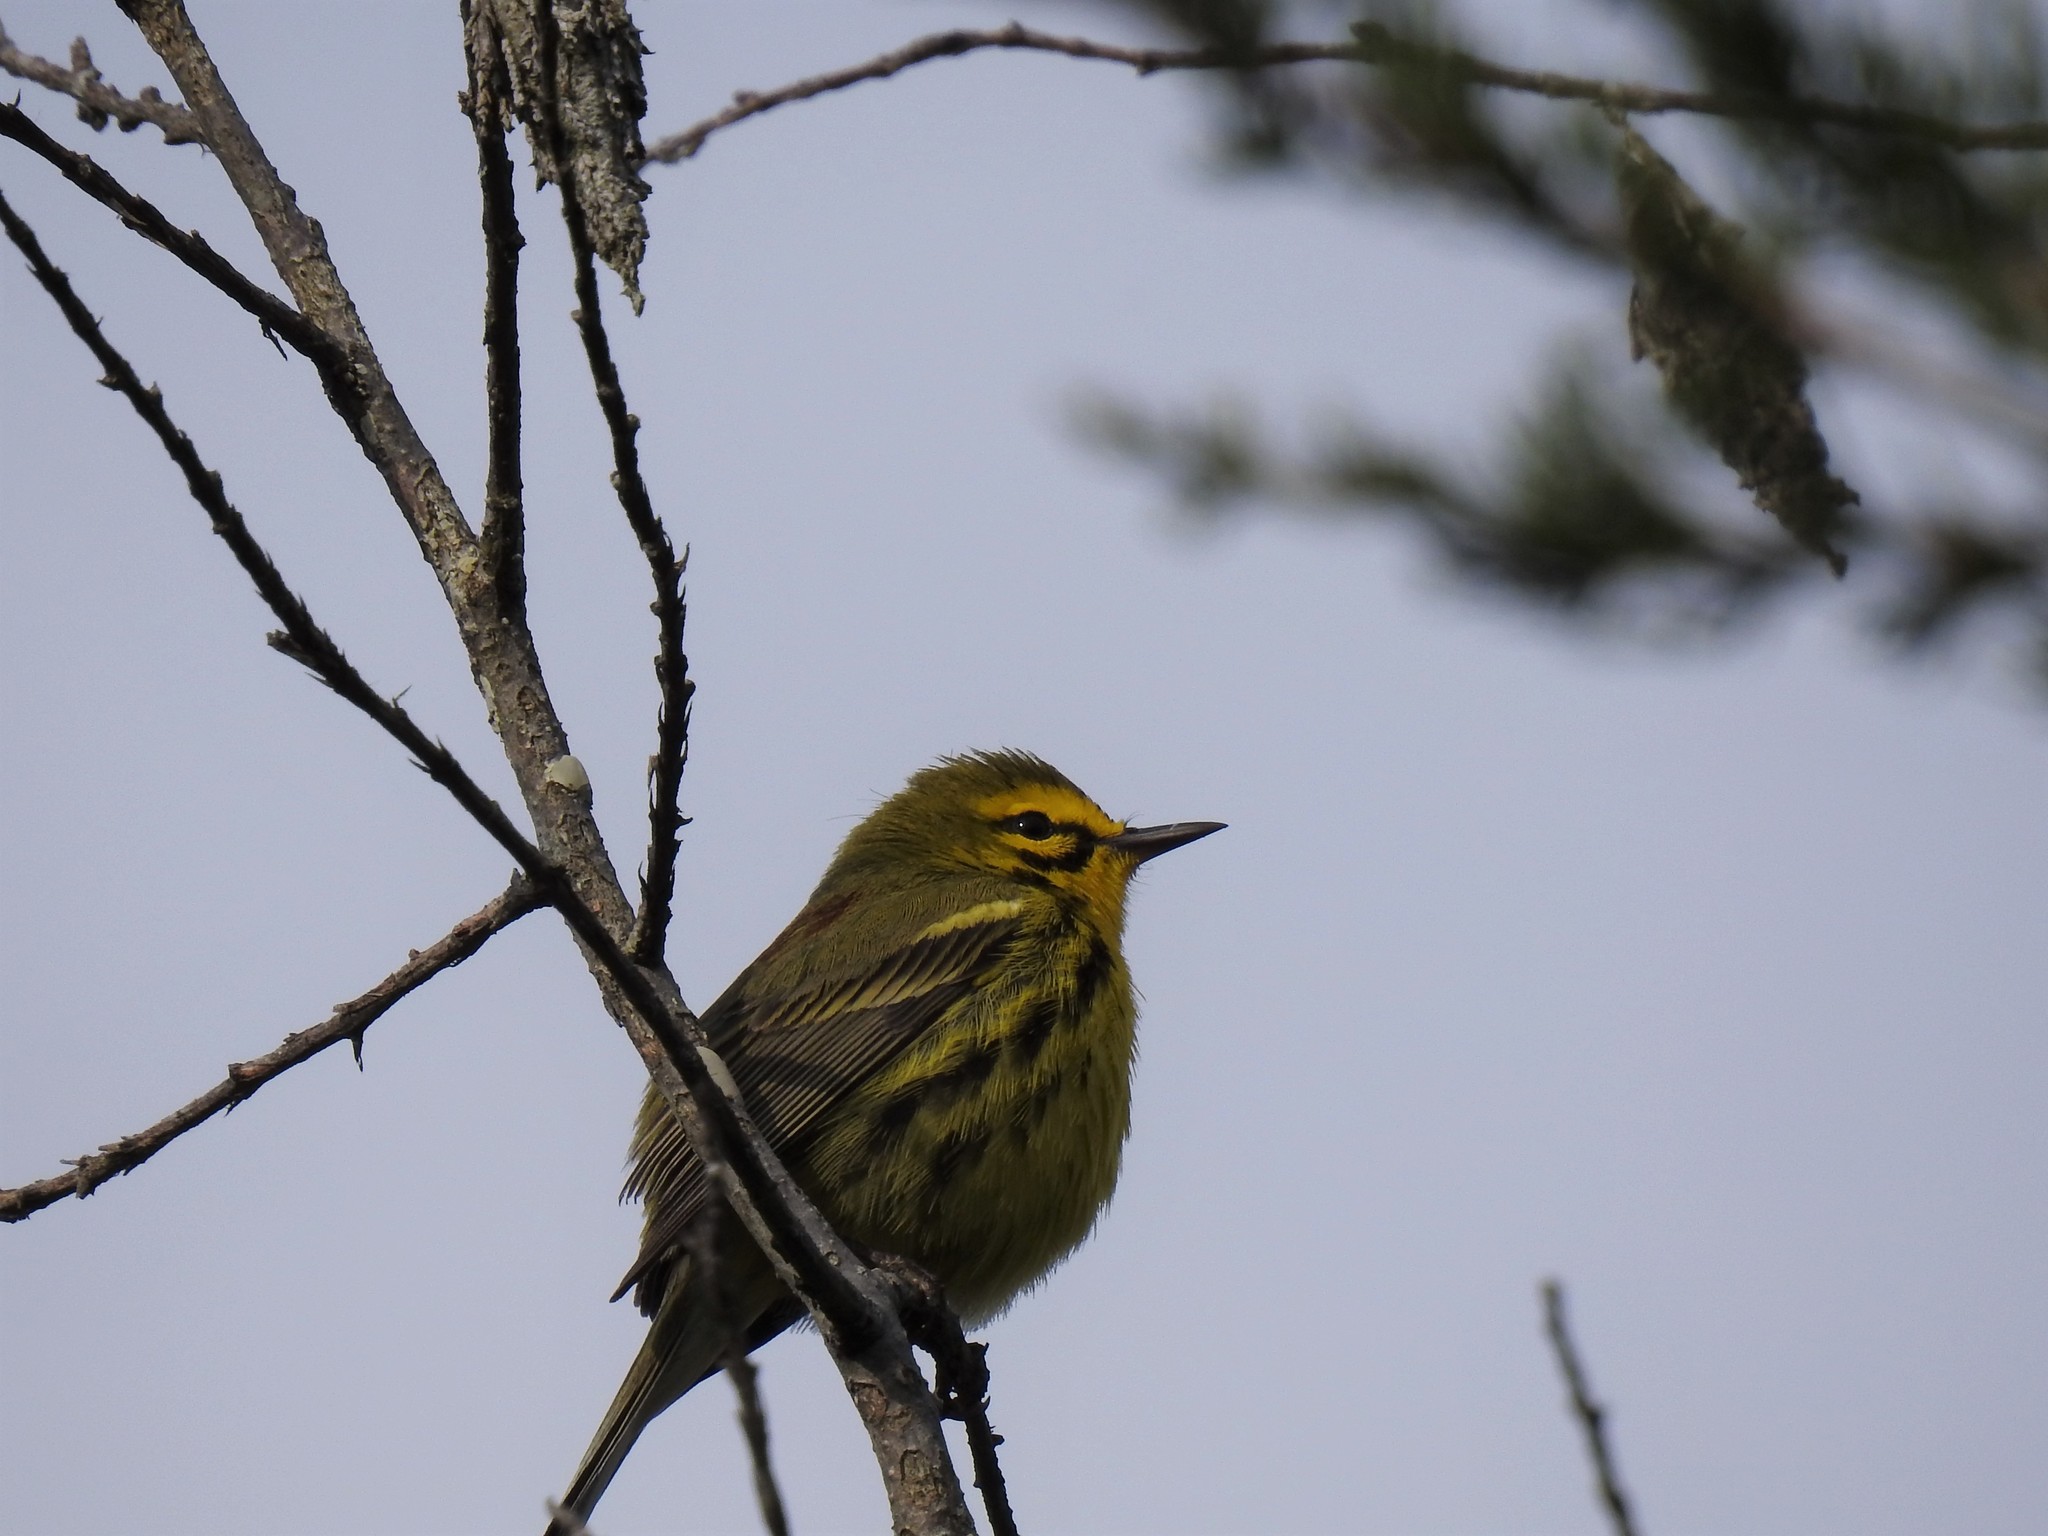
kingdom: Animalia
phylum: Chordata
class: Aves
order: Passeriformes
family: Parulidae
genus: Setophaga
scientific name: Setophaga discolor
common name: Prairie warbler
